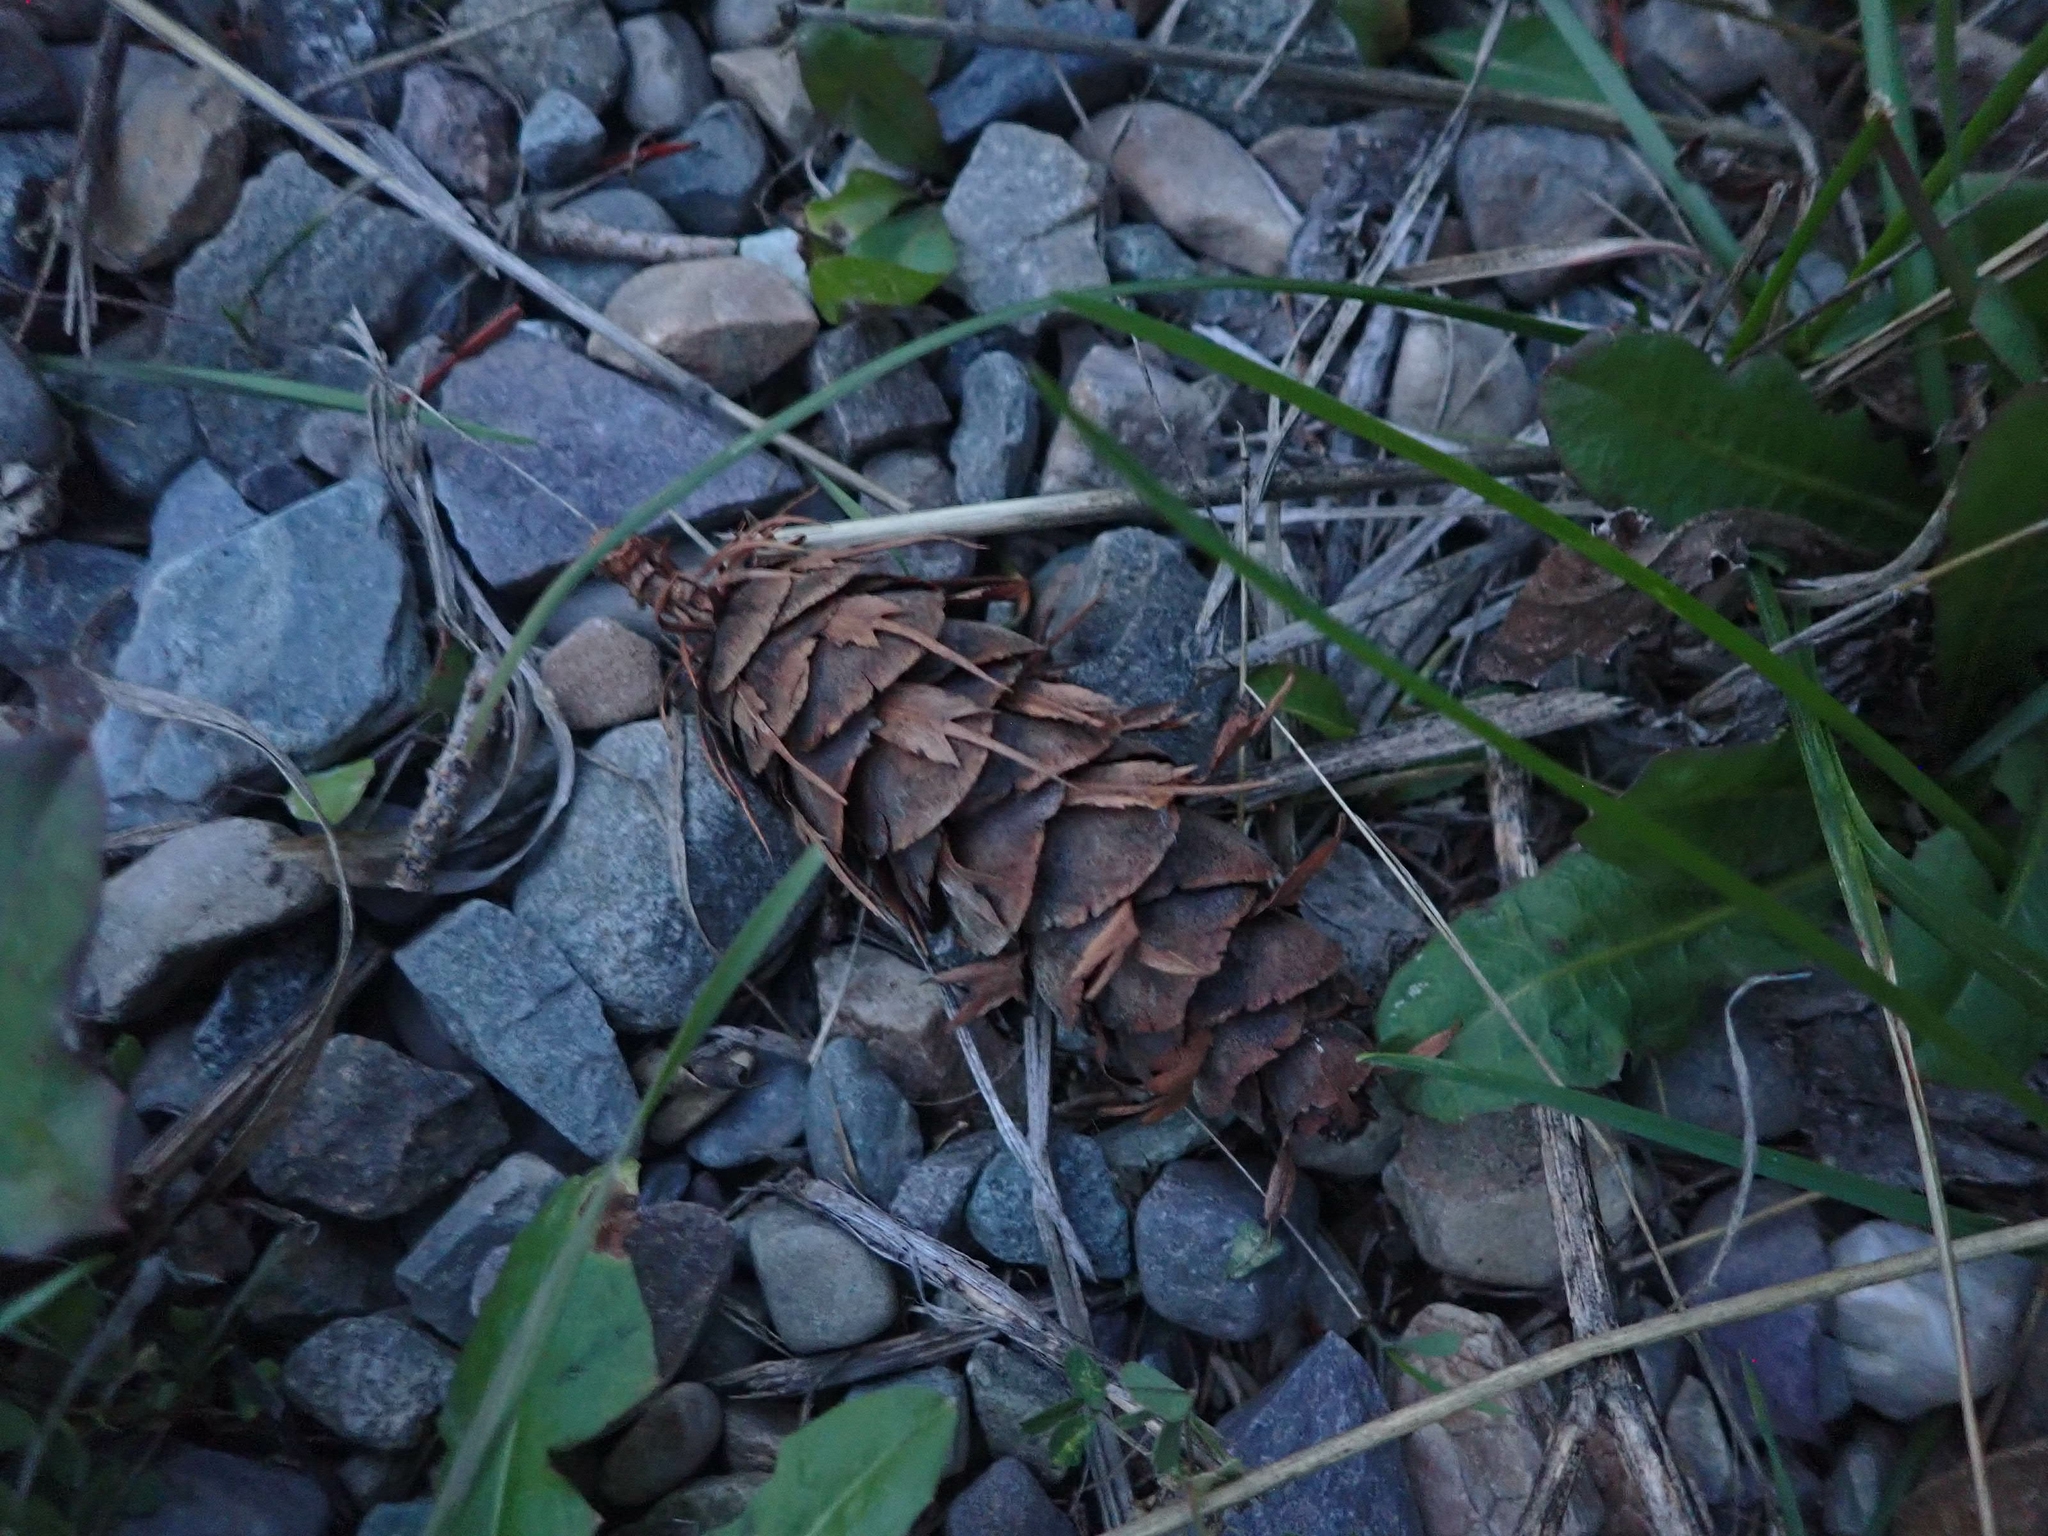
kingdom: Plantae
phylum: Tracheophyta
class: Pinopsida
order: Pinales
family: Pinaceae
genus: Pseudotsuga
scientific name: Pseudotsuga menziesii
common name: Douglas fir
